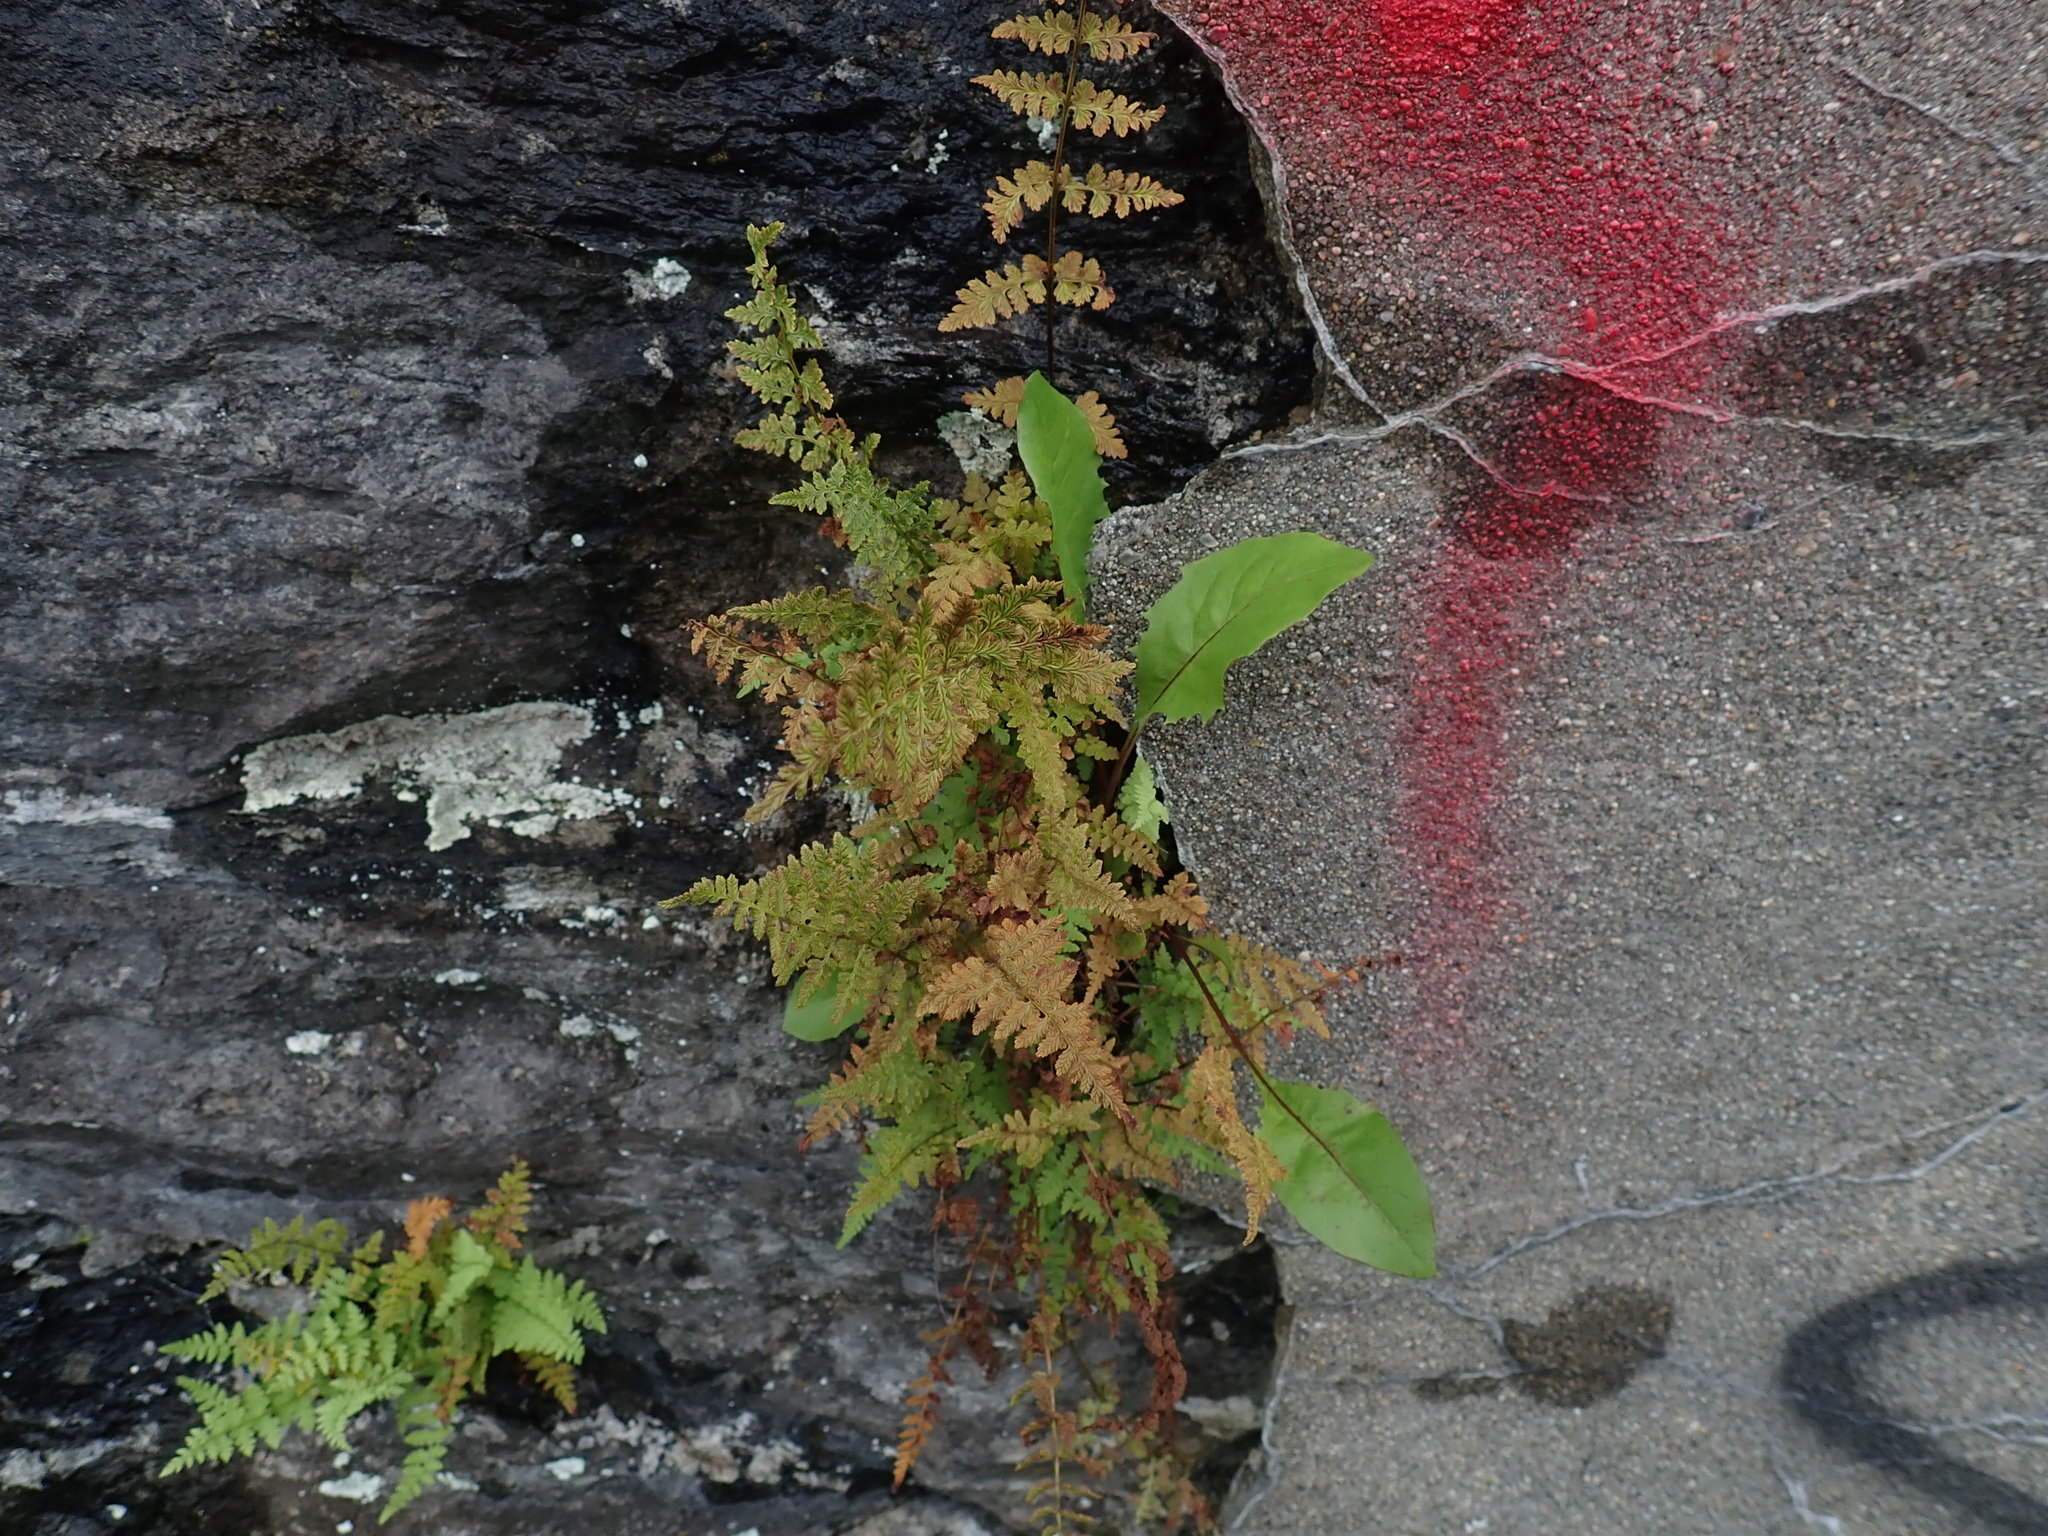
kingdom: Plantae
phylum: Tracheophyta
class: Polypodiopsida
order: Polypodiales
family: Woodsiaceae
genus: Woodsia
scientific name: Woodsia ilvensis
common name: Fragrant woodsia
